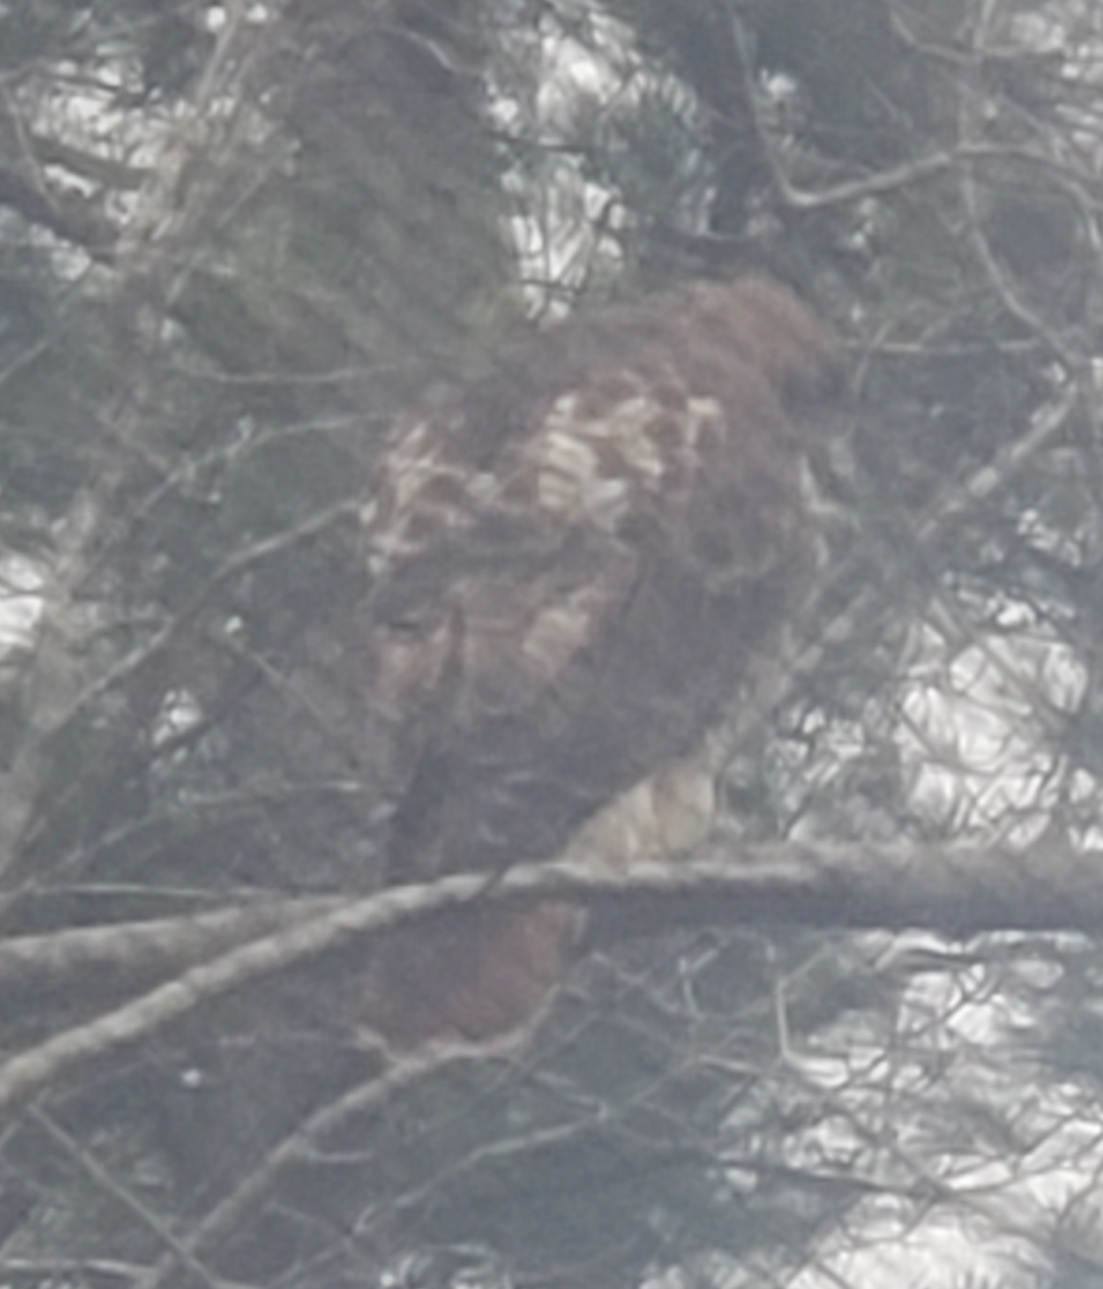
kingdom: Animalia
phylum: Chordata
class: Aves
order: Accipitriformes
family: Accipitridae
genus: Buteo
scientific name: Buteo jamaicensis
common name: Red-tailed hawk
